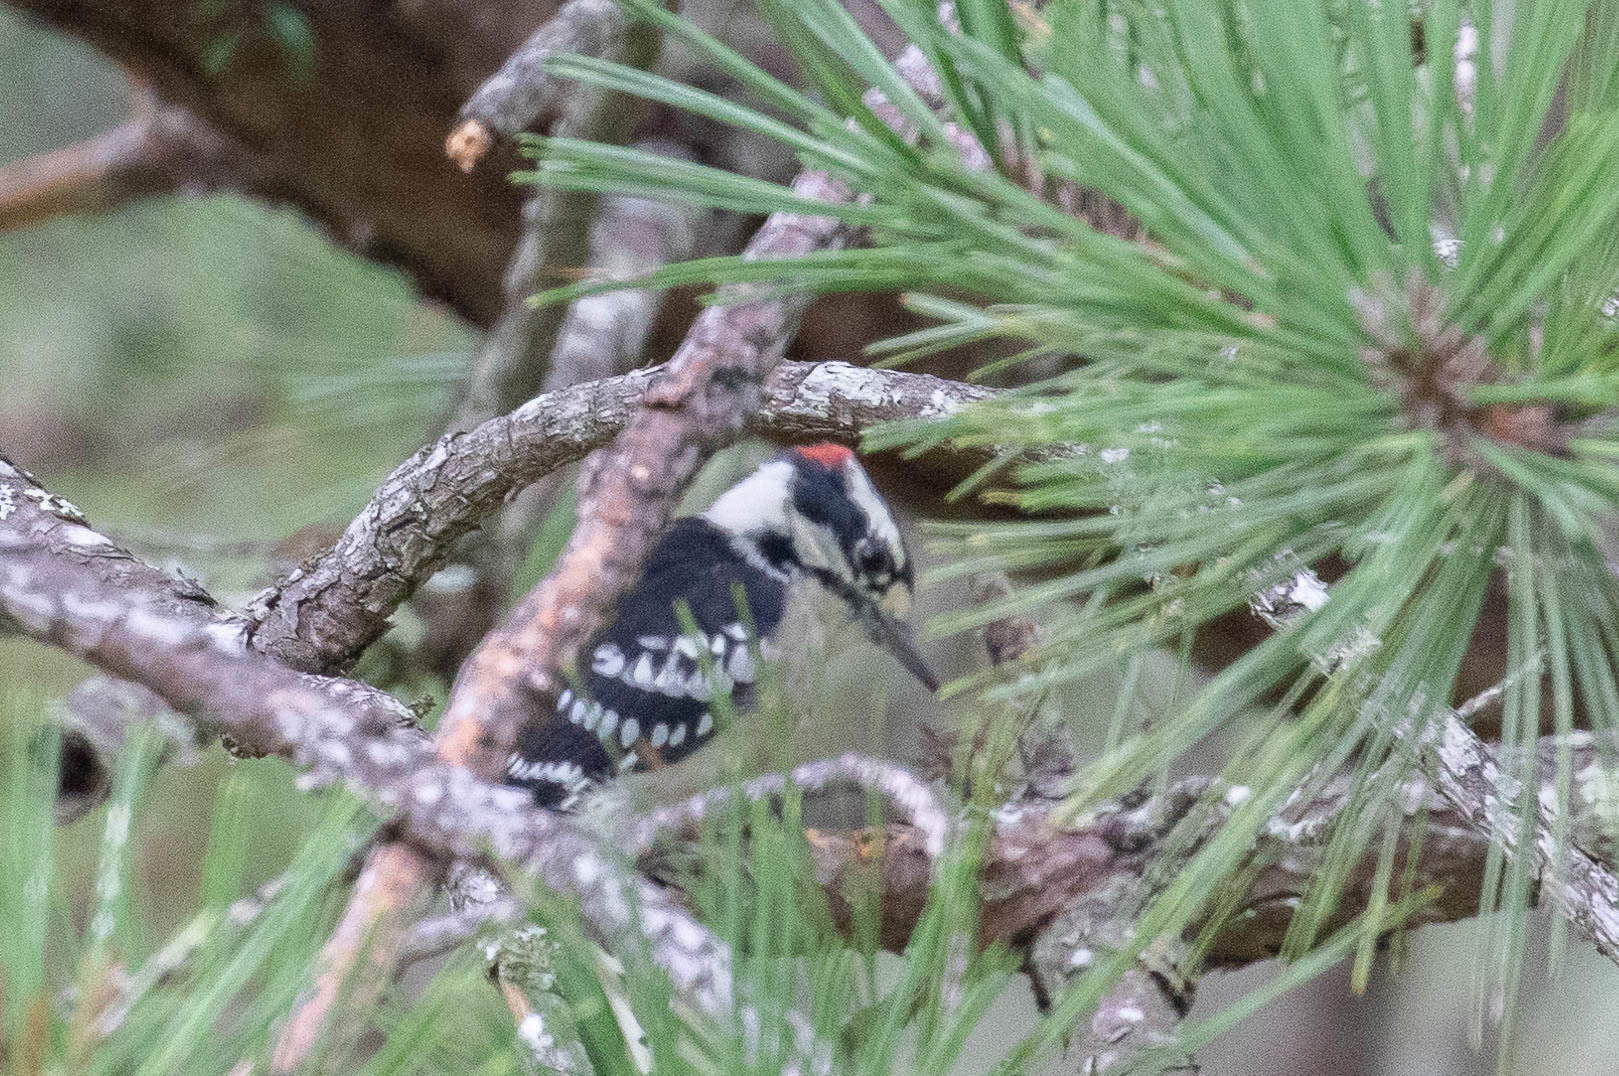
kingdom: Animalia
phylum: Chordata
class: Aves
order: Piciformes
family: Picidae
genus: Dryobates
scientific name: Dryobates pubescens
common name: Downy woodpecker
